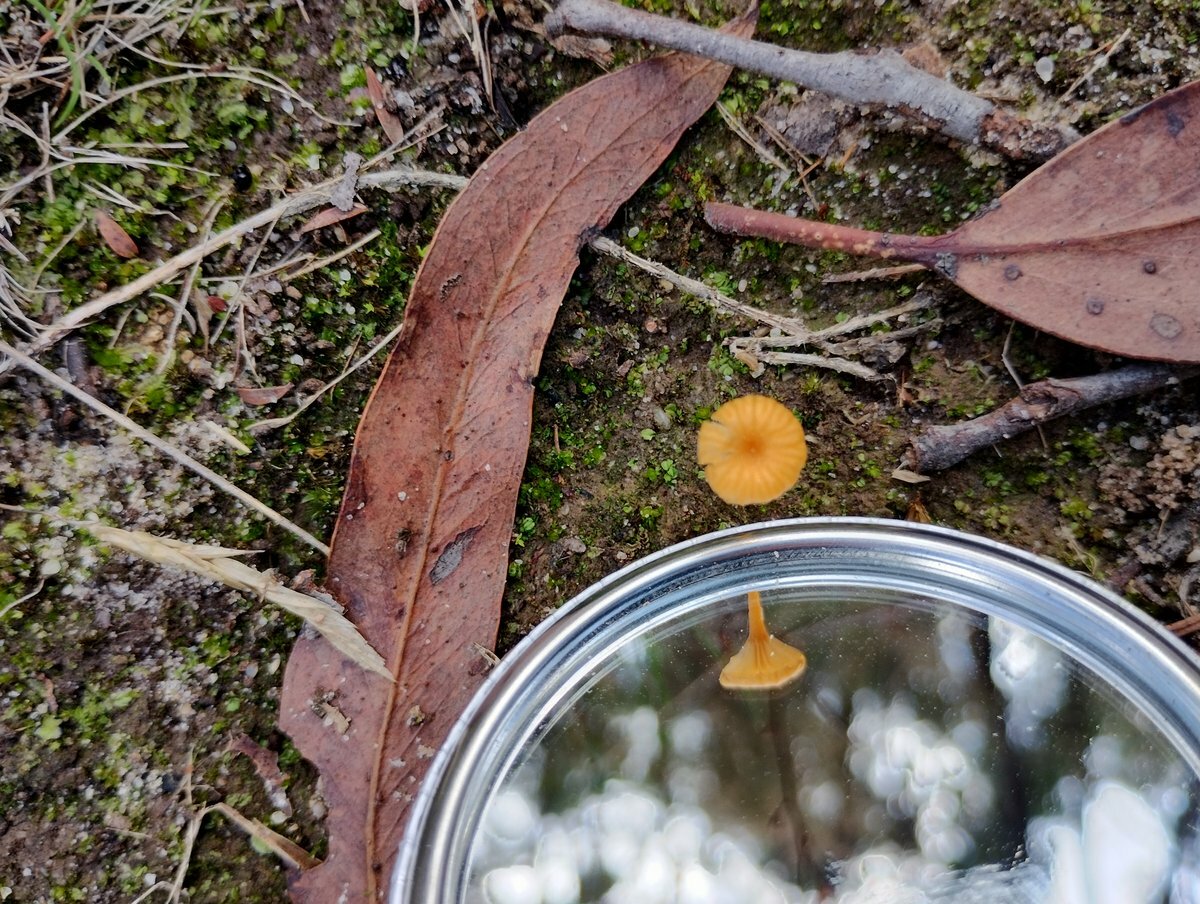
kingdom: Fungi
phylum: Basidiomycota
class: Agaricomycetes
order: Agaricales
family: Hygrophoraceae
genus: Lichenomphalia
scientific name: Lichenomphalia chromacea
